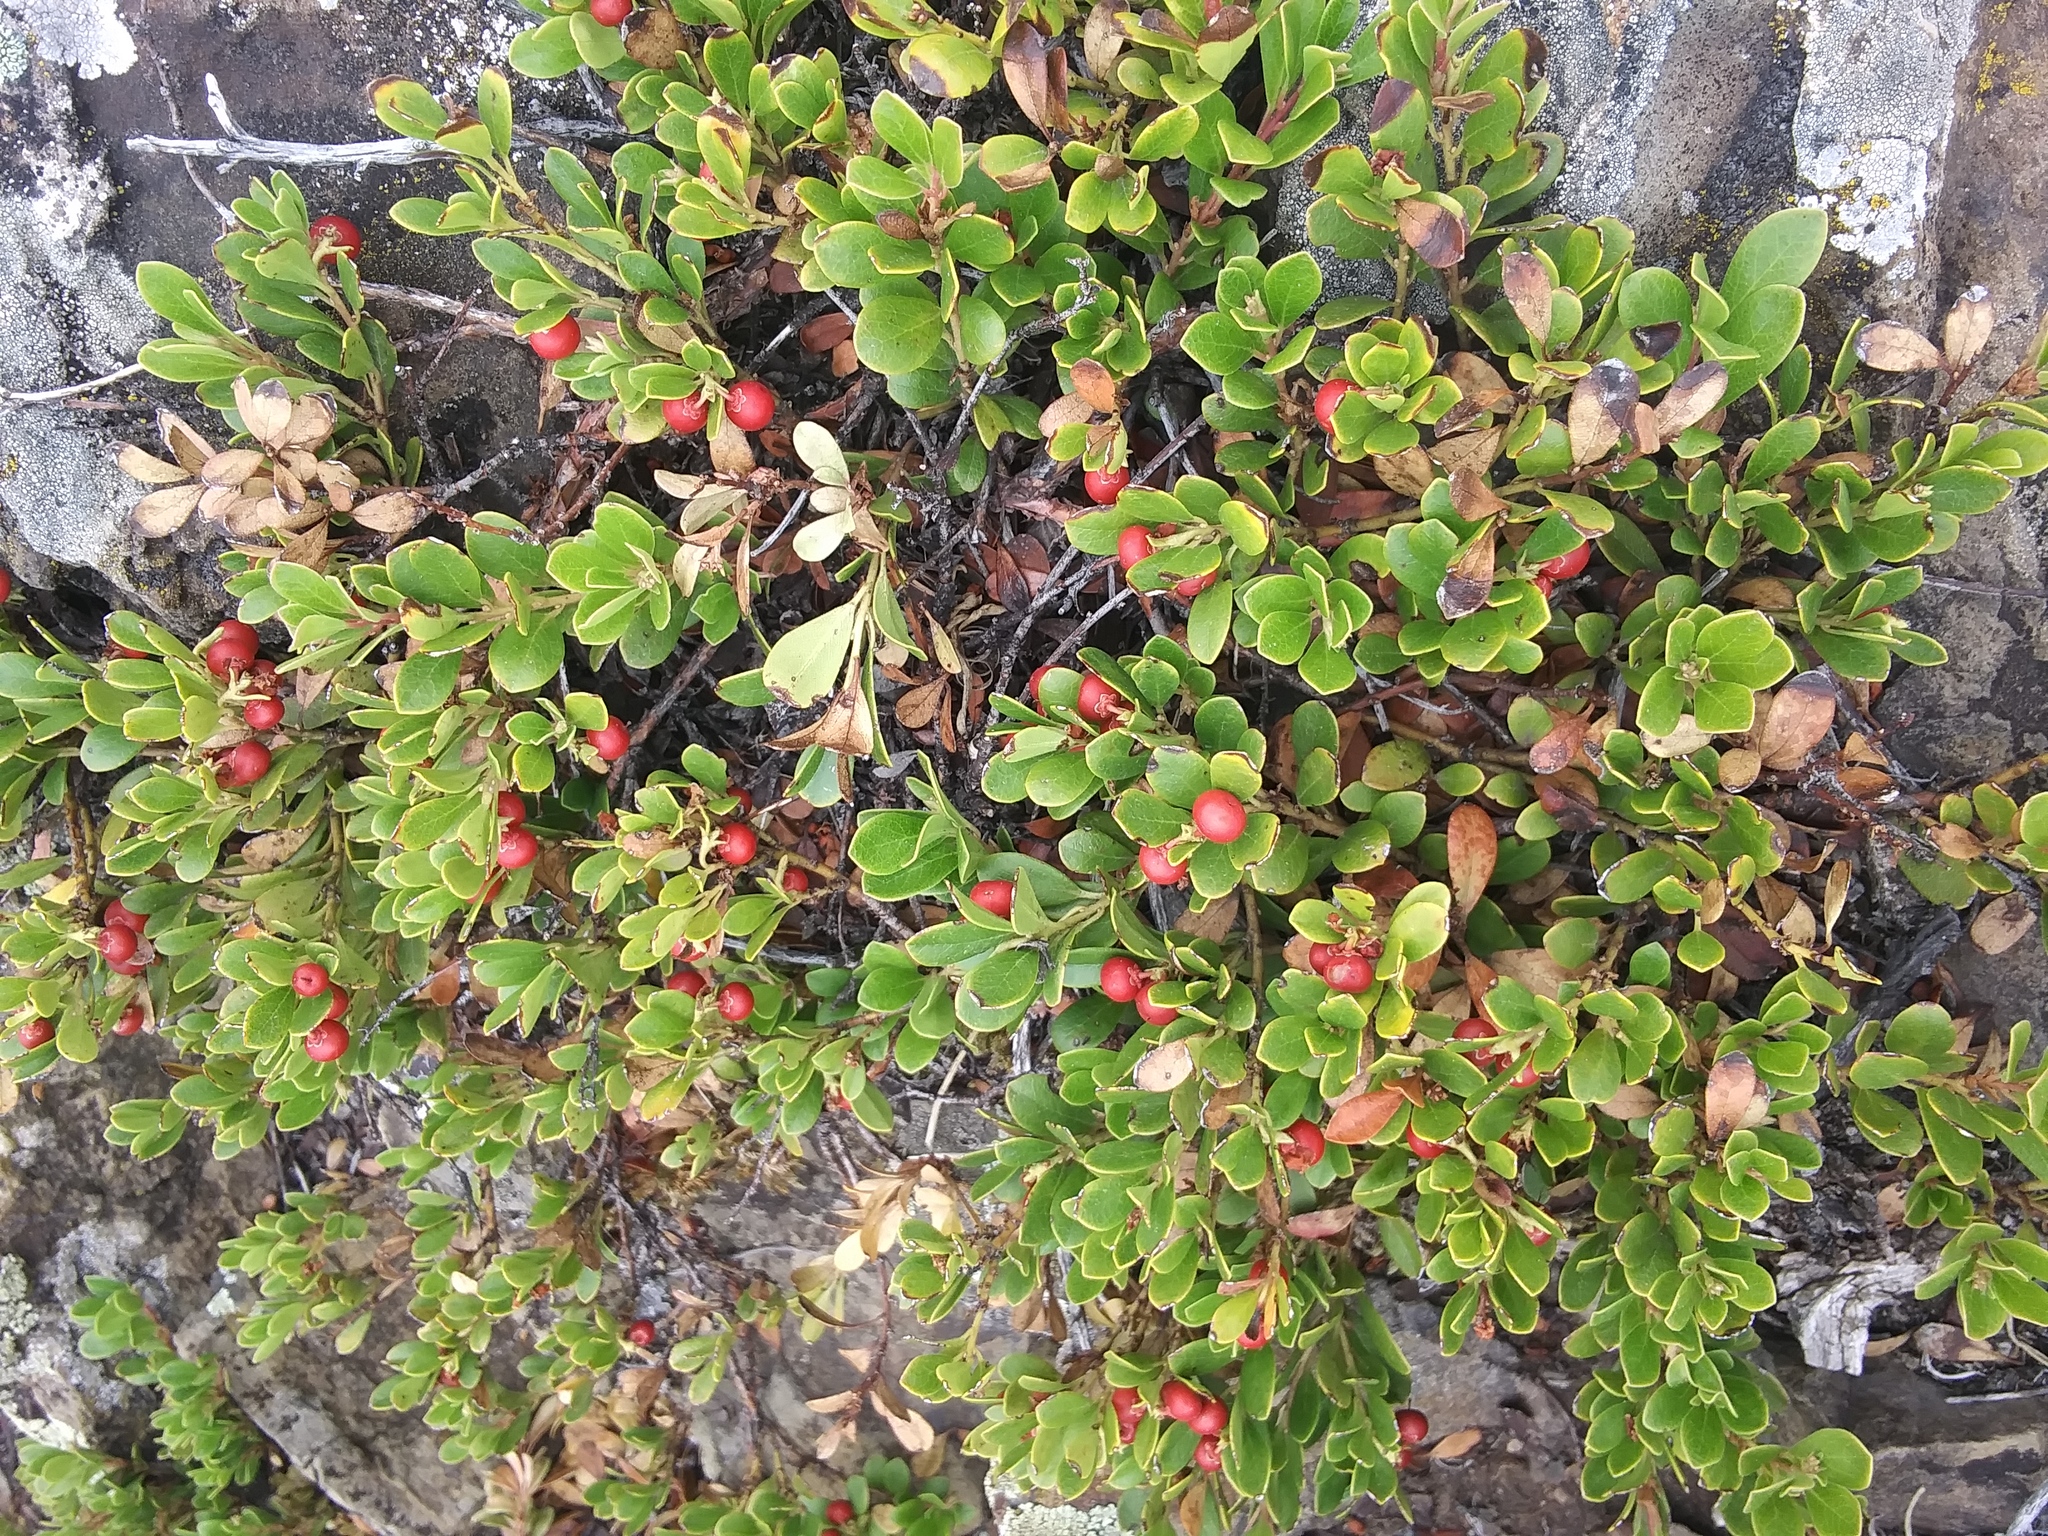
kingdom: Plantae
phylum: Tracheophyta
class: Magnoliopsida
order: Ericales
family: Ericaceae
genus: Arctostaphylos
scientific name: Arctostaphylos uva-ursi
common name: Bearberry
